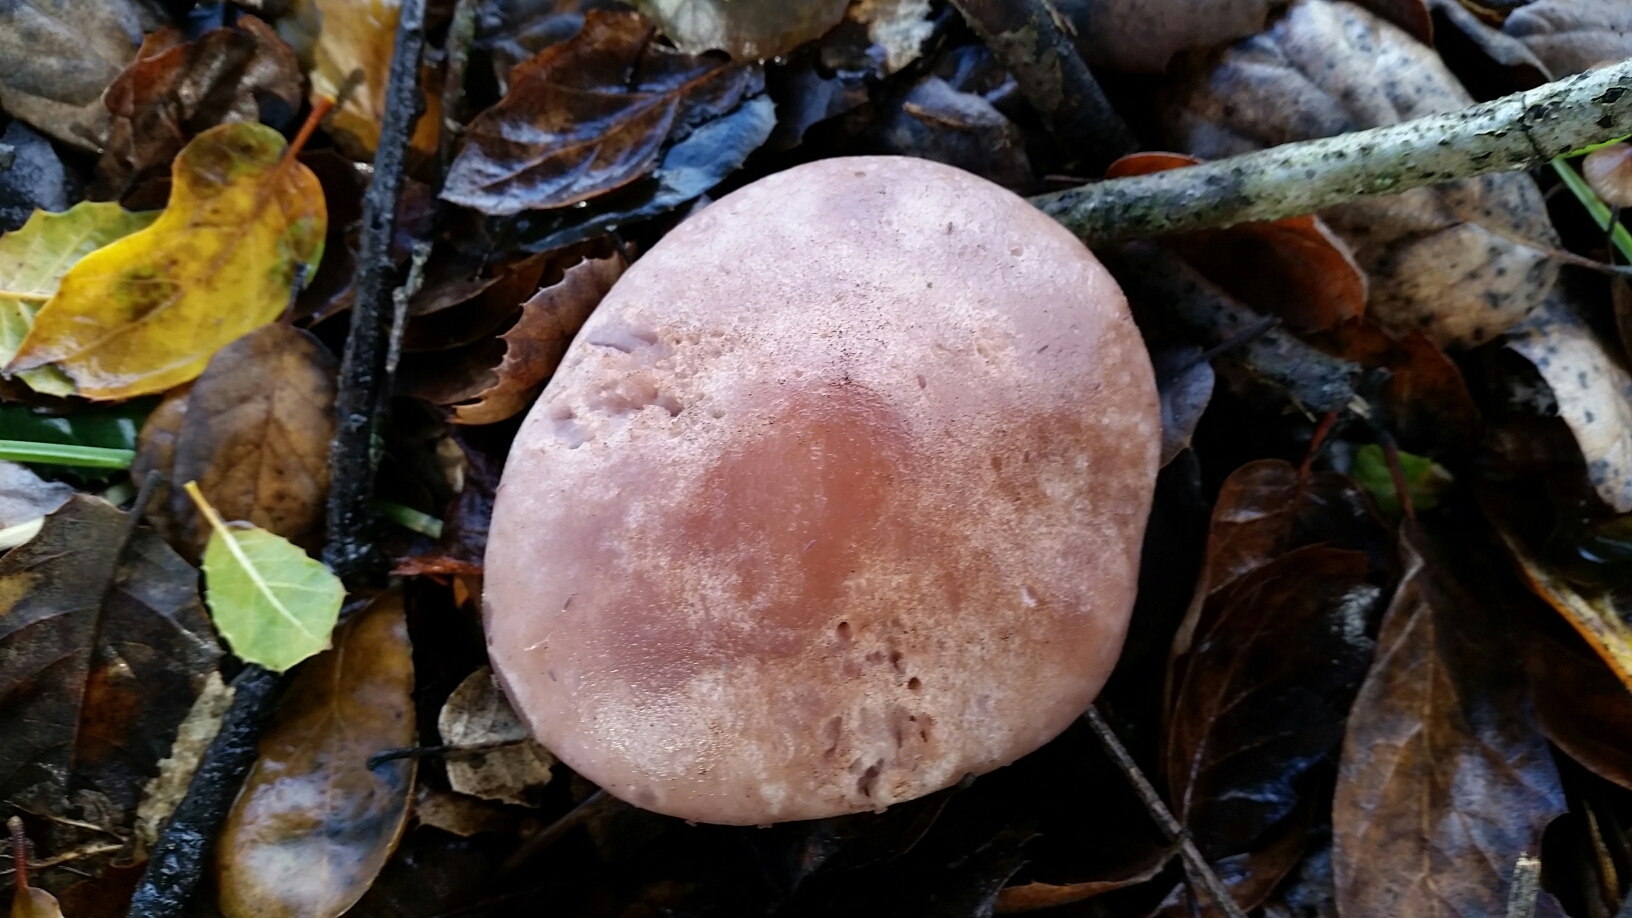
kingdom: Fungi
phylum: Basidiomycota
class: Agaricomycetes
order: Agaricales
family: Tricholomataceae
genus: Collybia
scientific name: Collybia
